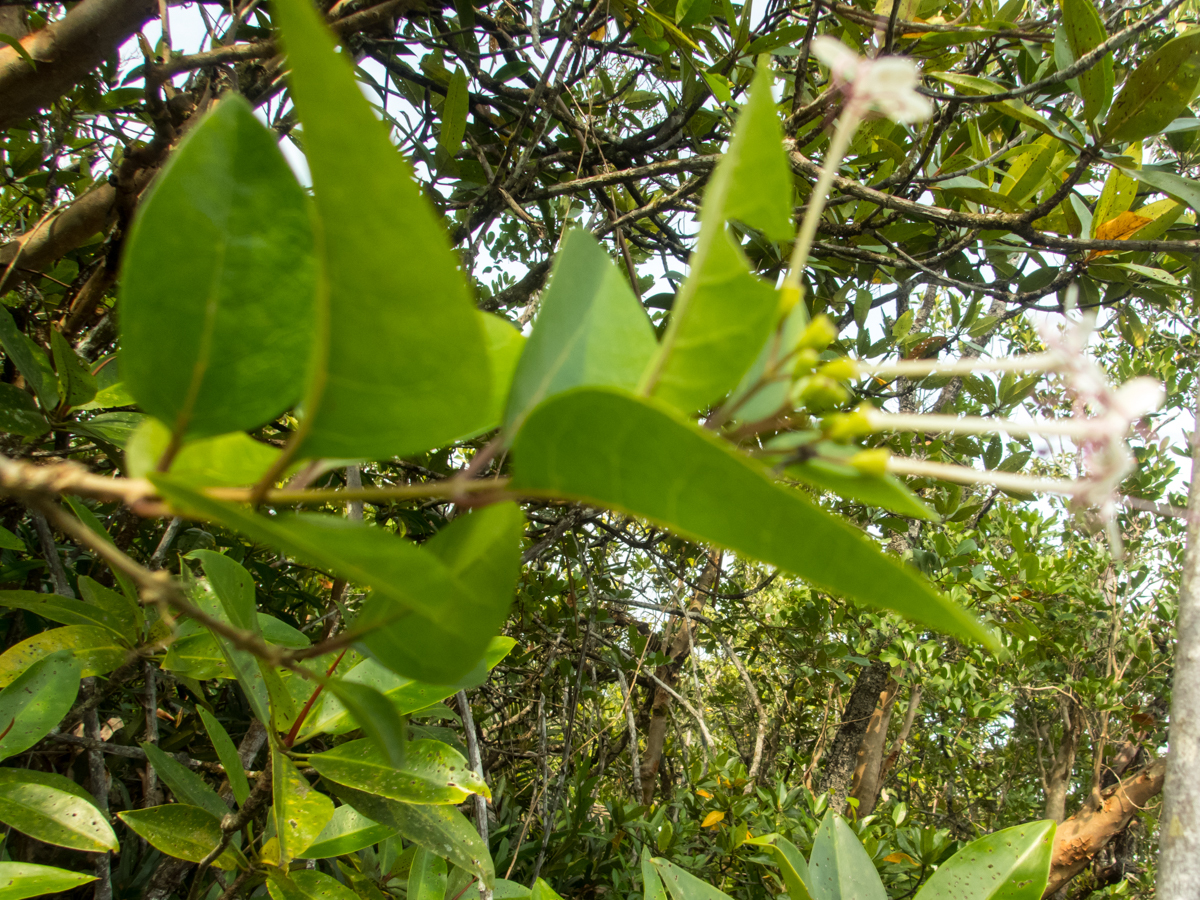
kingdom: Plantae
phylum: Tracheophyta
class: Magnoliopsida
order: Lamiales
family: Lamiaceae
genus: Volkameria
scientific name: Volkameria inermis
